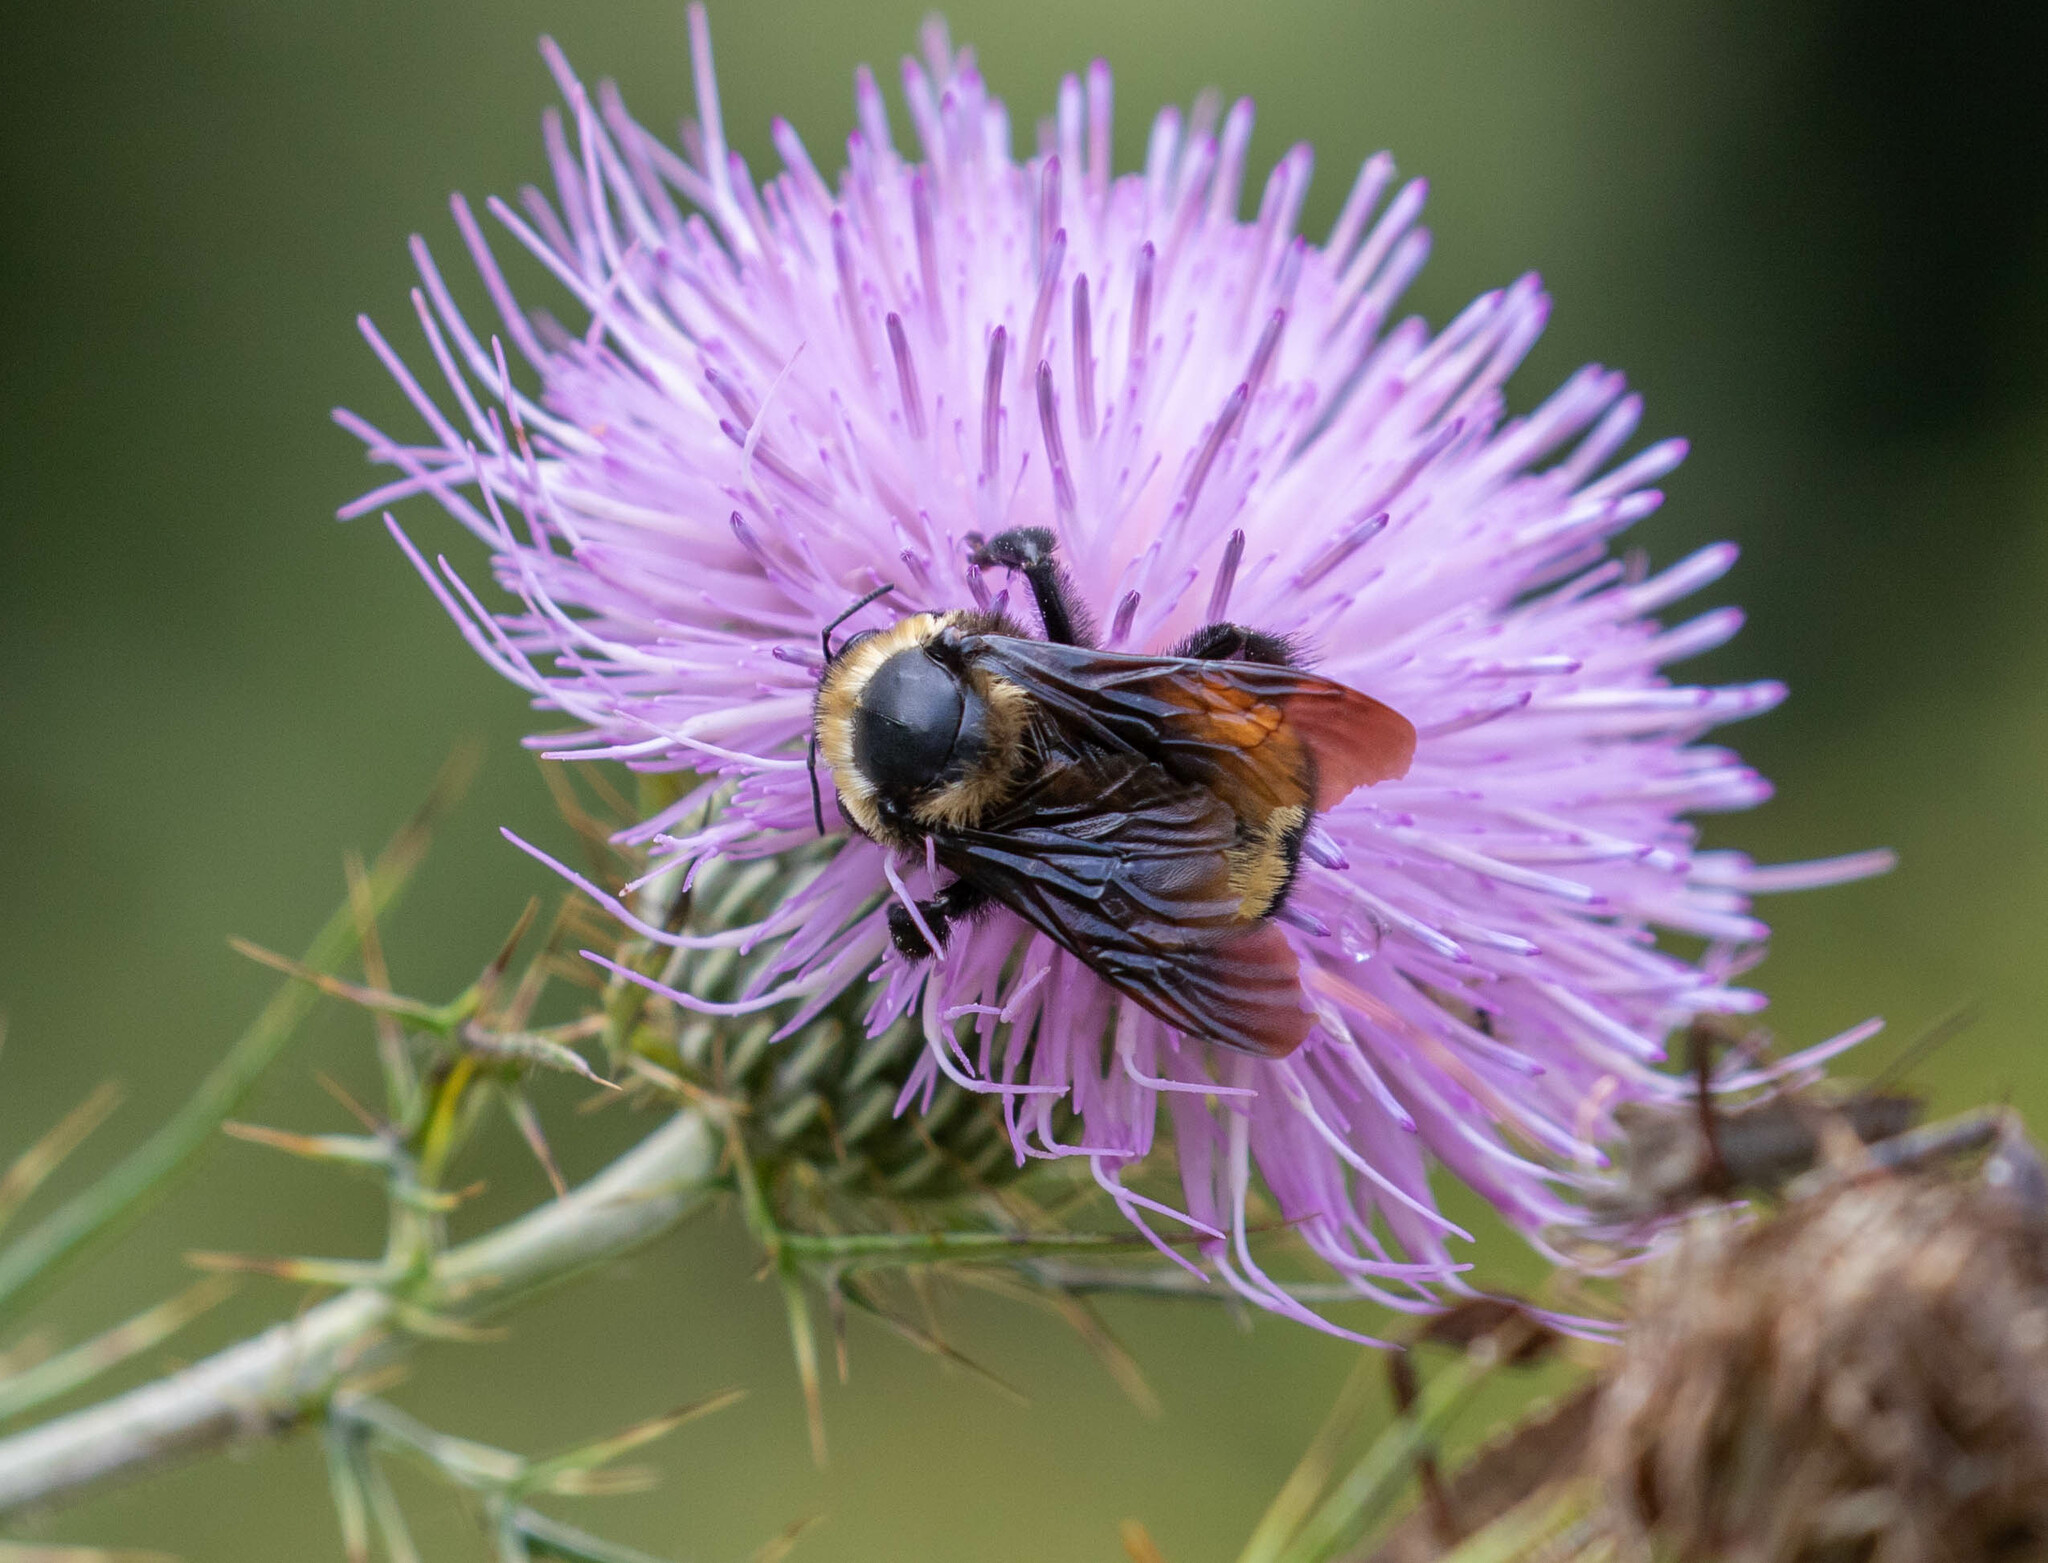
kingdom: Animalia
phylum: Arthropoda
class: Insecta
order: Hymenoptera
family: Apidae
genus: Bombus
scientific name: Bombus auricomus
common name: Black and gold bumble bee
